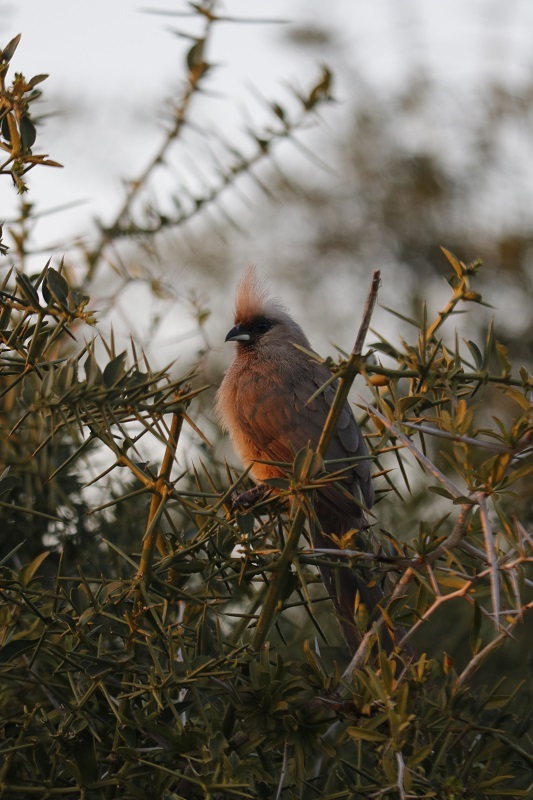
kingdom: Animalia
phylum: Chordata
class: Aves
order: Coliiformes
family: Coliidae
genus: Colius
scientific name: Colius striatus
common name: Speckled mousebird
